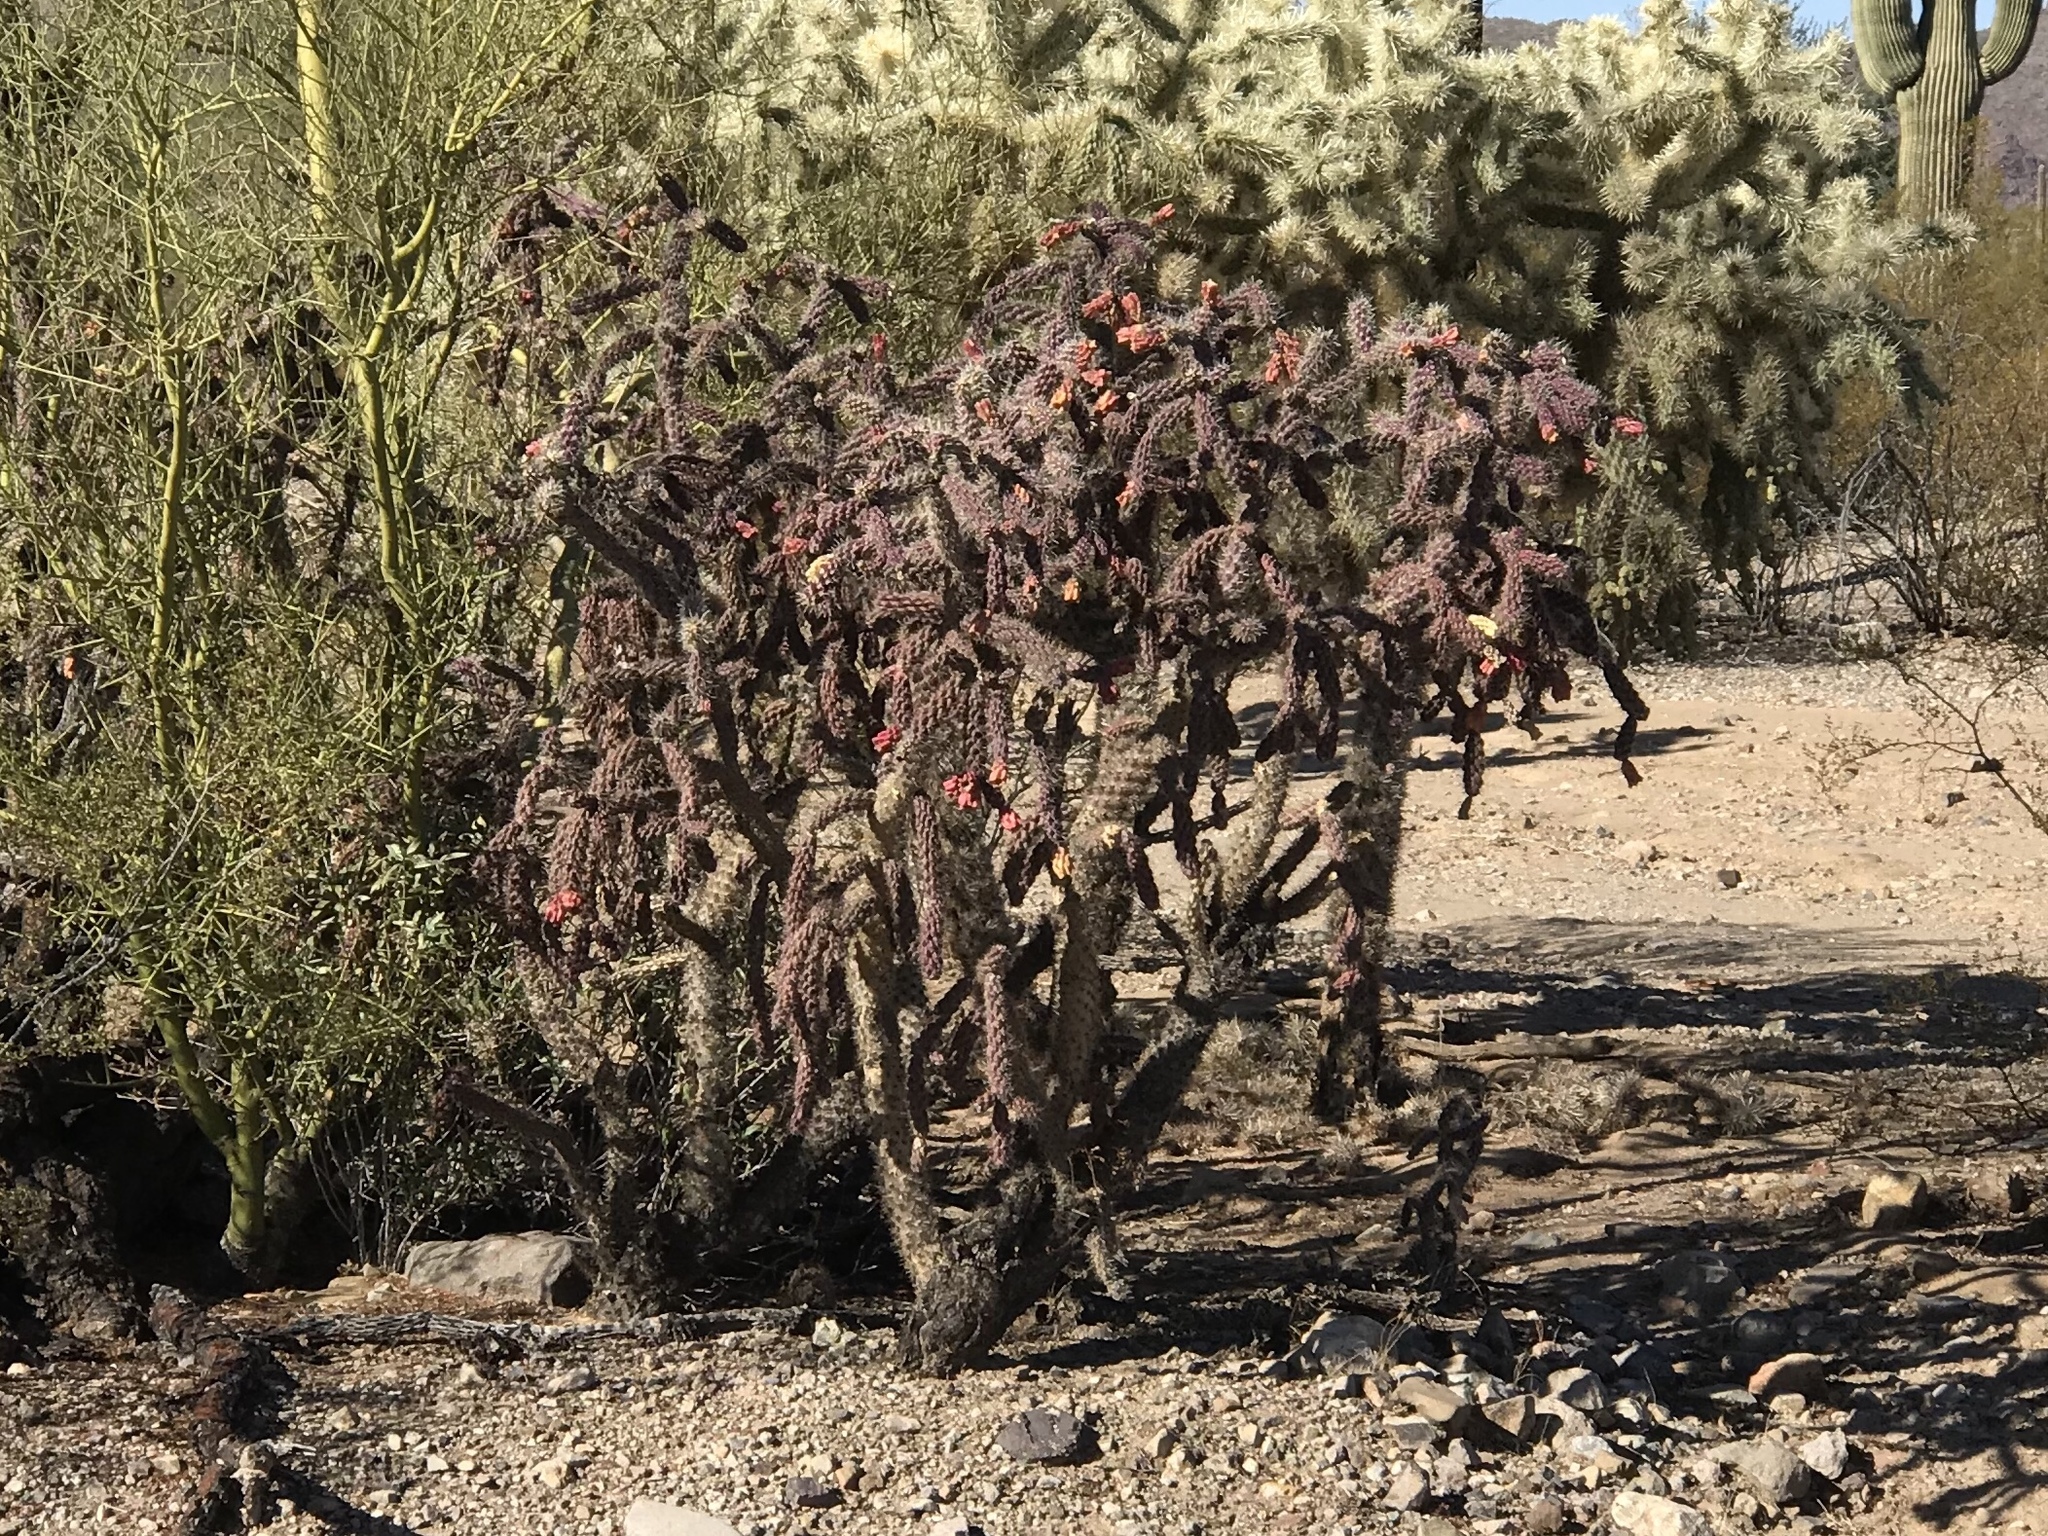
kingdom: Plantae
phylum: Tracheophyta
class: Magnoliopsida
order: Caryophyllales
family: Cactaceae
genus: Cylindropuntia
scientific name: Cylindropuntia thurberi
